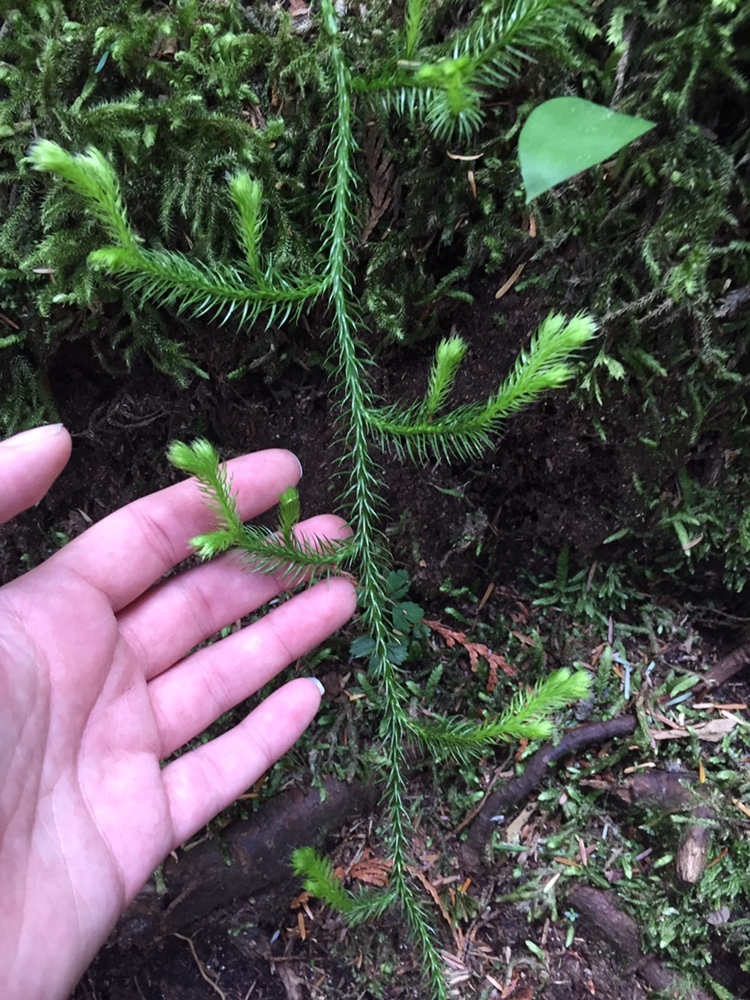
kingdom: Plantae
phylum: Tracheophyta
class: Lycopodiopsida
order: Lycopodiales
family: Lycopodiaceae
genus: Lycopodium
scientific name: Lycopodium clavatum
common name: Stag's-horn clubmoss
